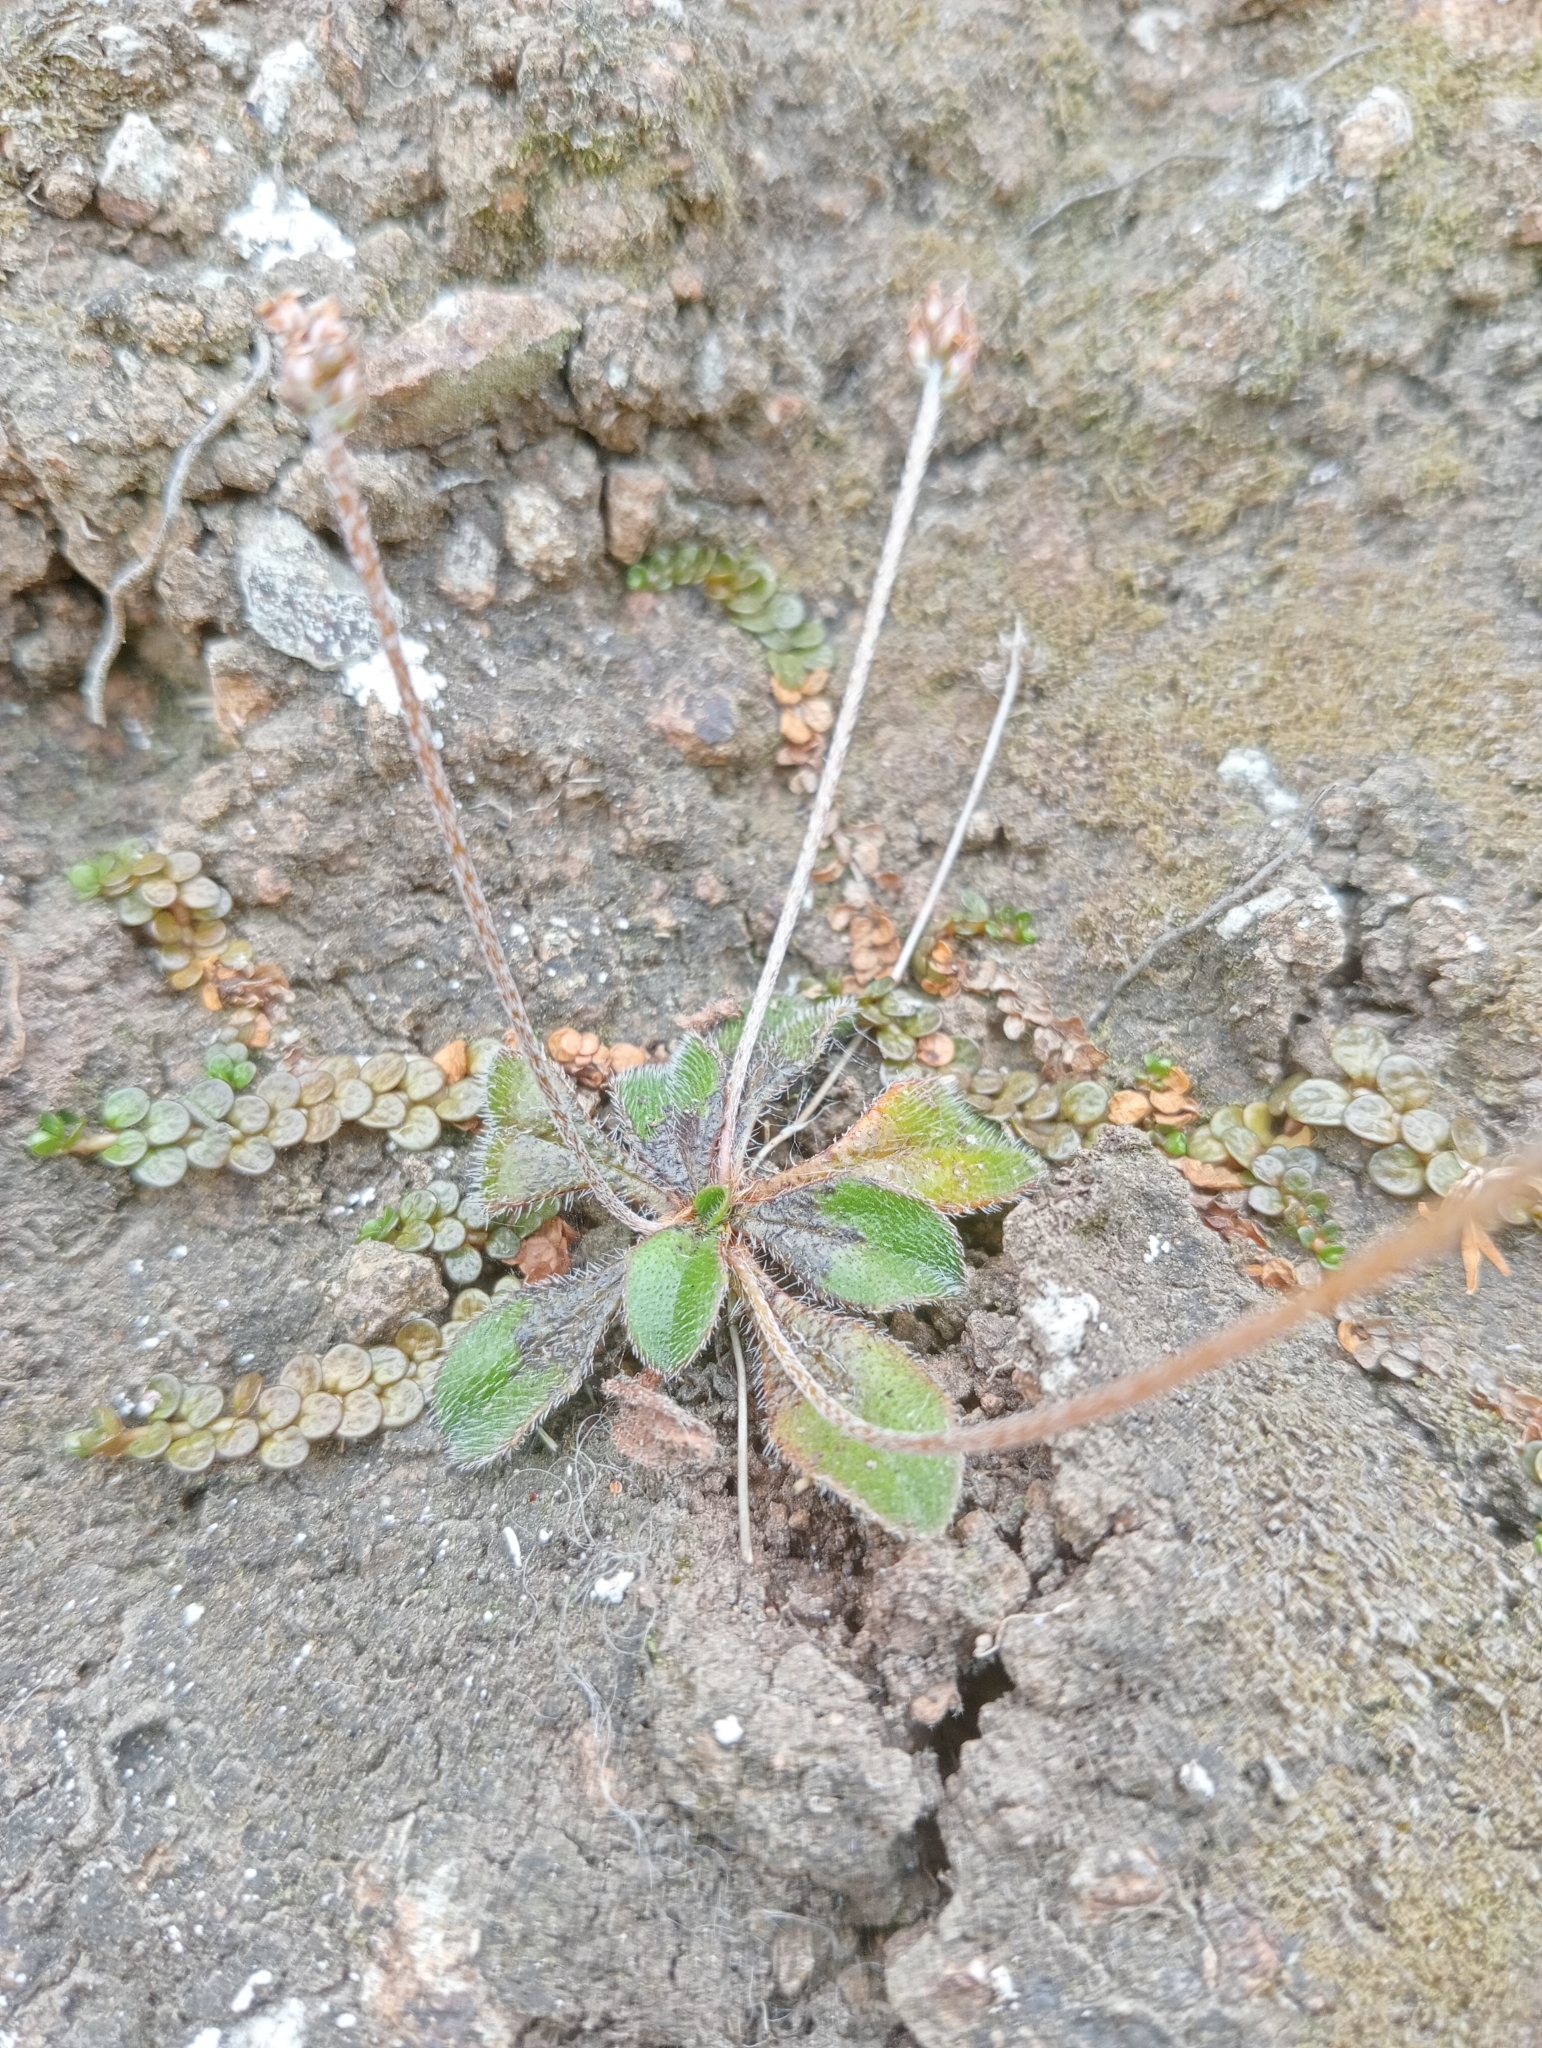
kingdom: Plantae
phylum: Tracheophyta
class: Magnoliopsida
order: Lamiales
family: Plantaginaceae
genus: Plantago
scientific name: Plantago raoulii
